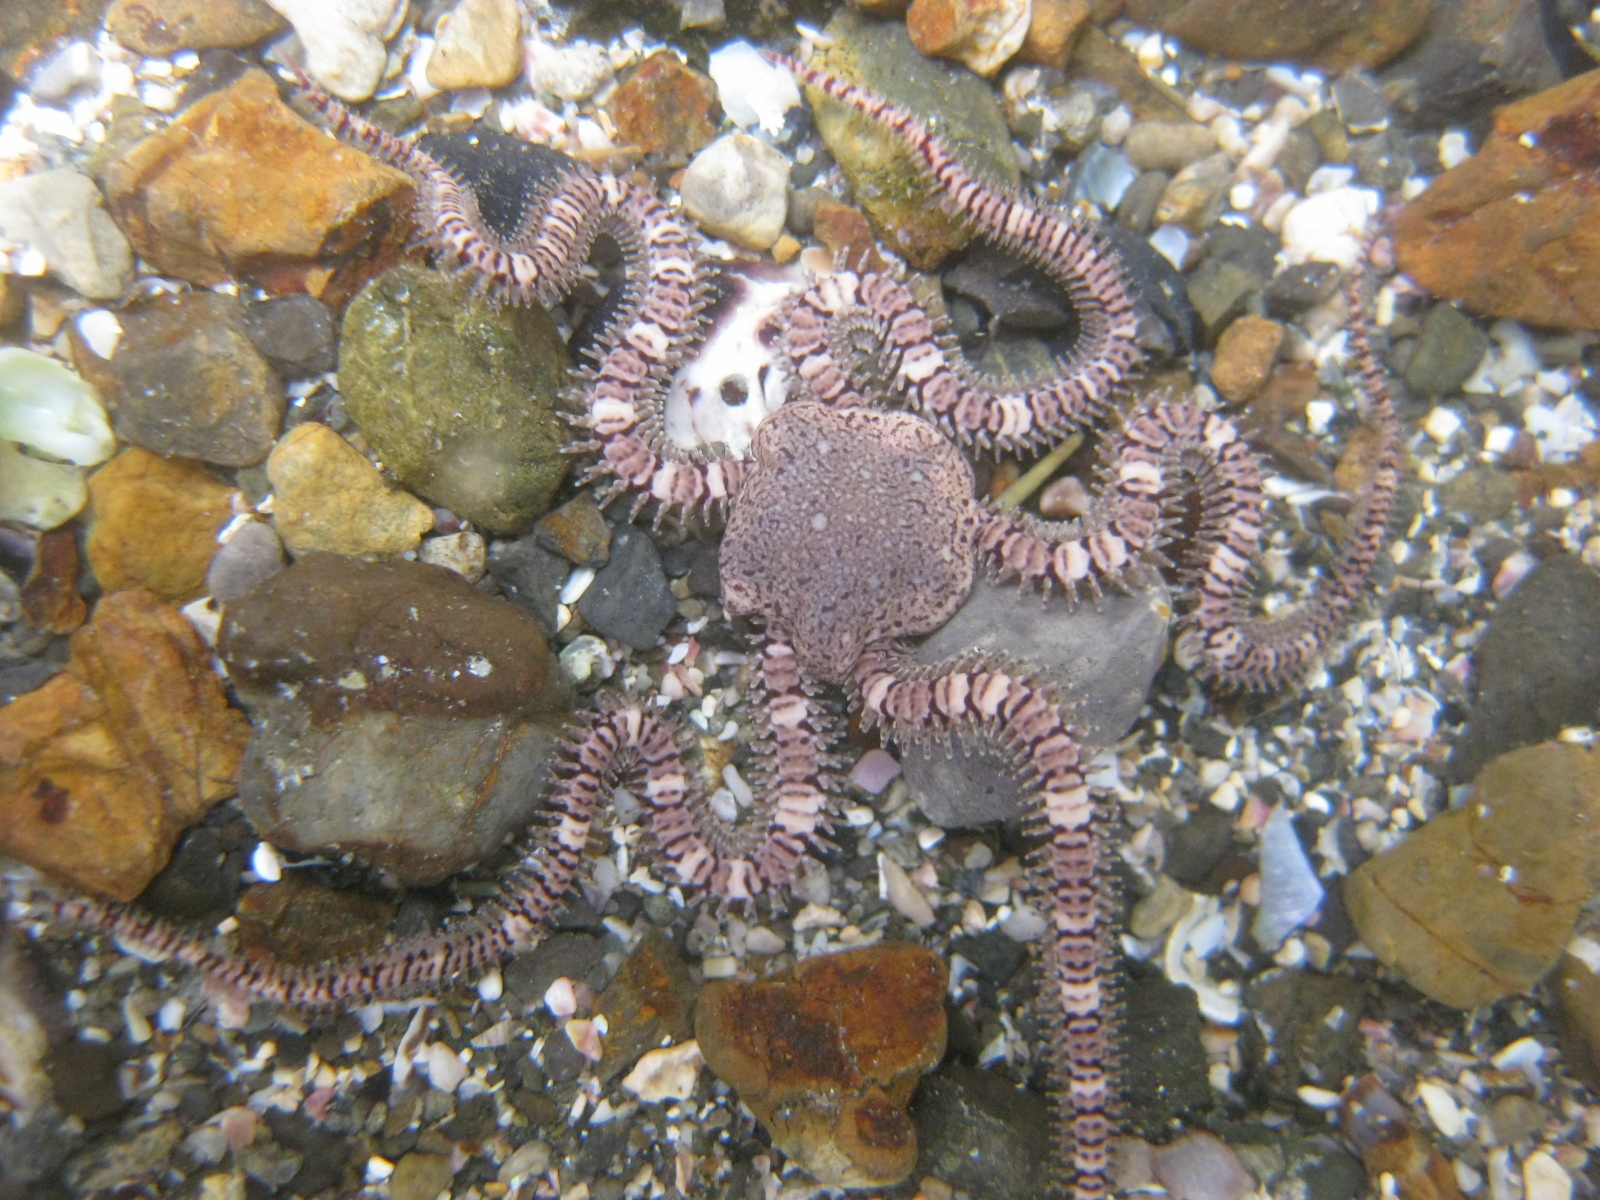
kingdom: Animalia
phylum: Echinodermata
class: Ophiuroidea
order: Amphilepidida
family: Ophionereididae
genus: Ophionereis
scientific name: Ophionereis fasciata
